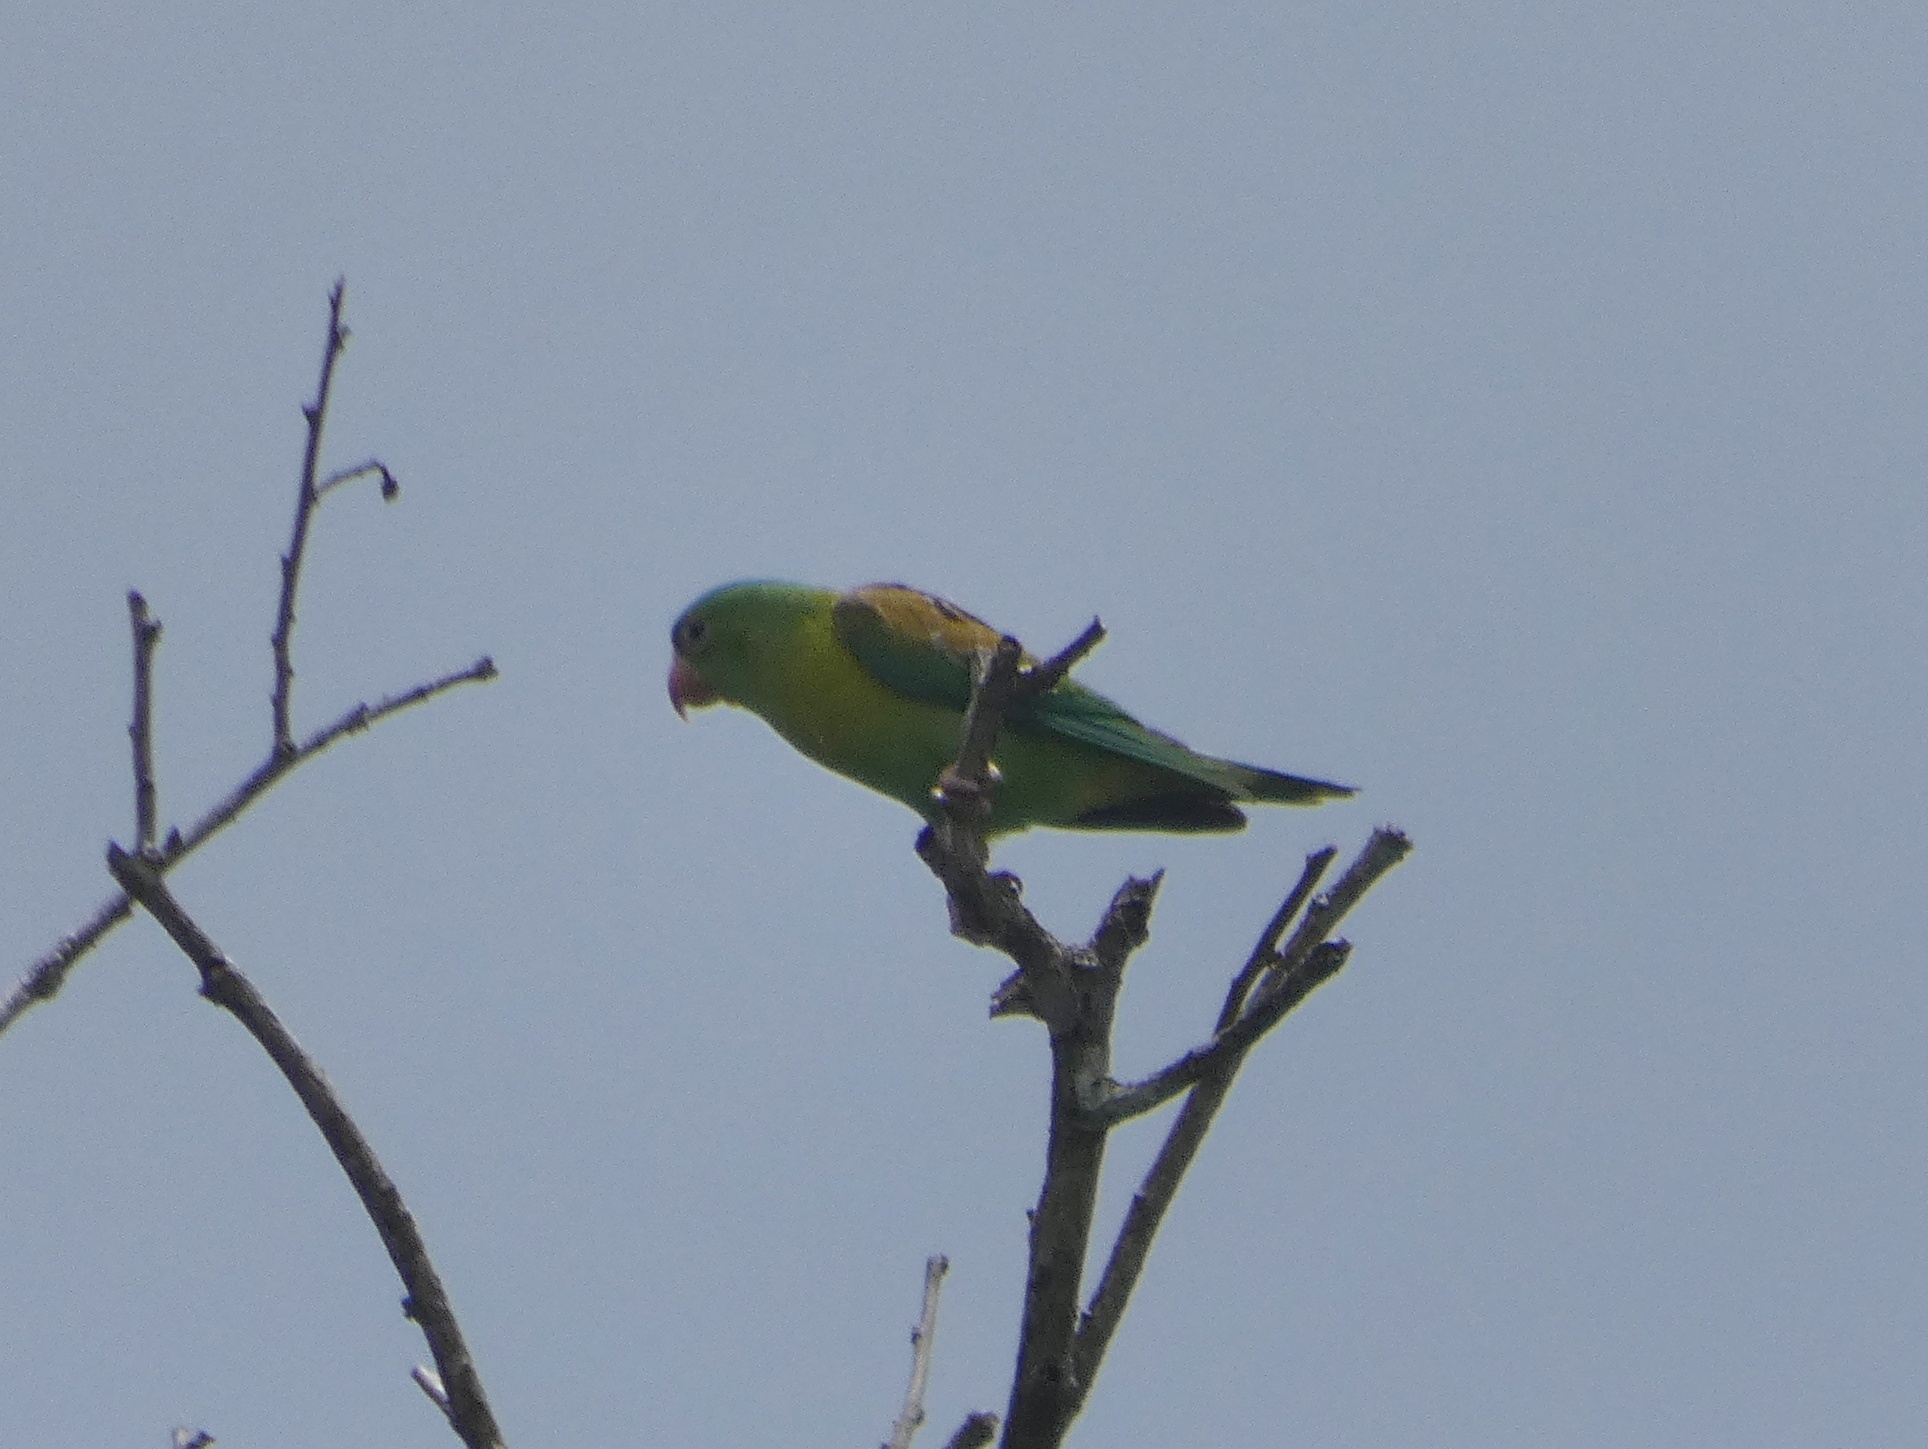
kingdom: Animalia
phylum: Chordata
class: Aves
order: Psittaciformes
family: Psittacidae
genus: Brotogeris
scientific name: Brotogeris jugularis
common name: Orange-chinned parakeet
